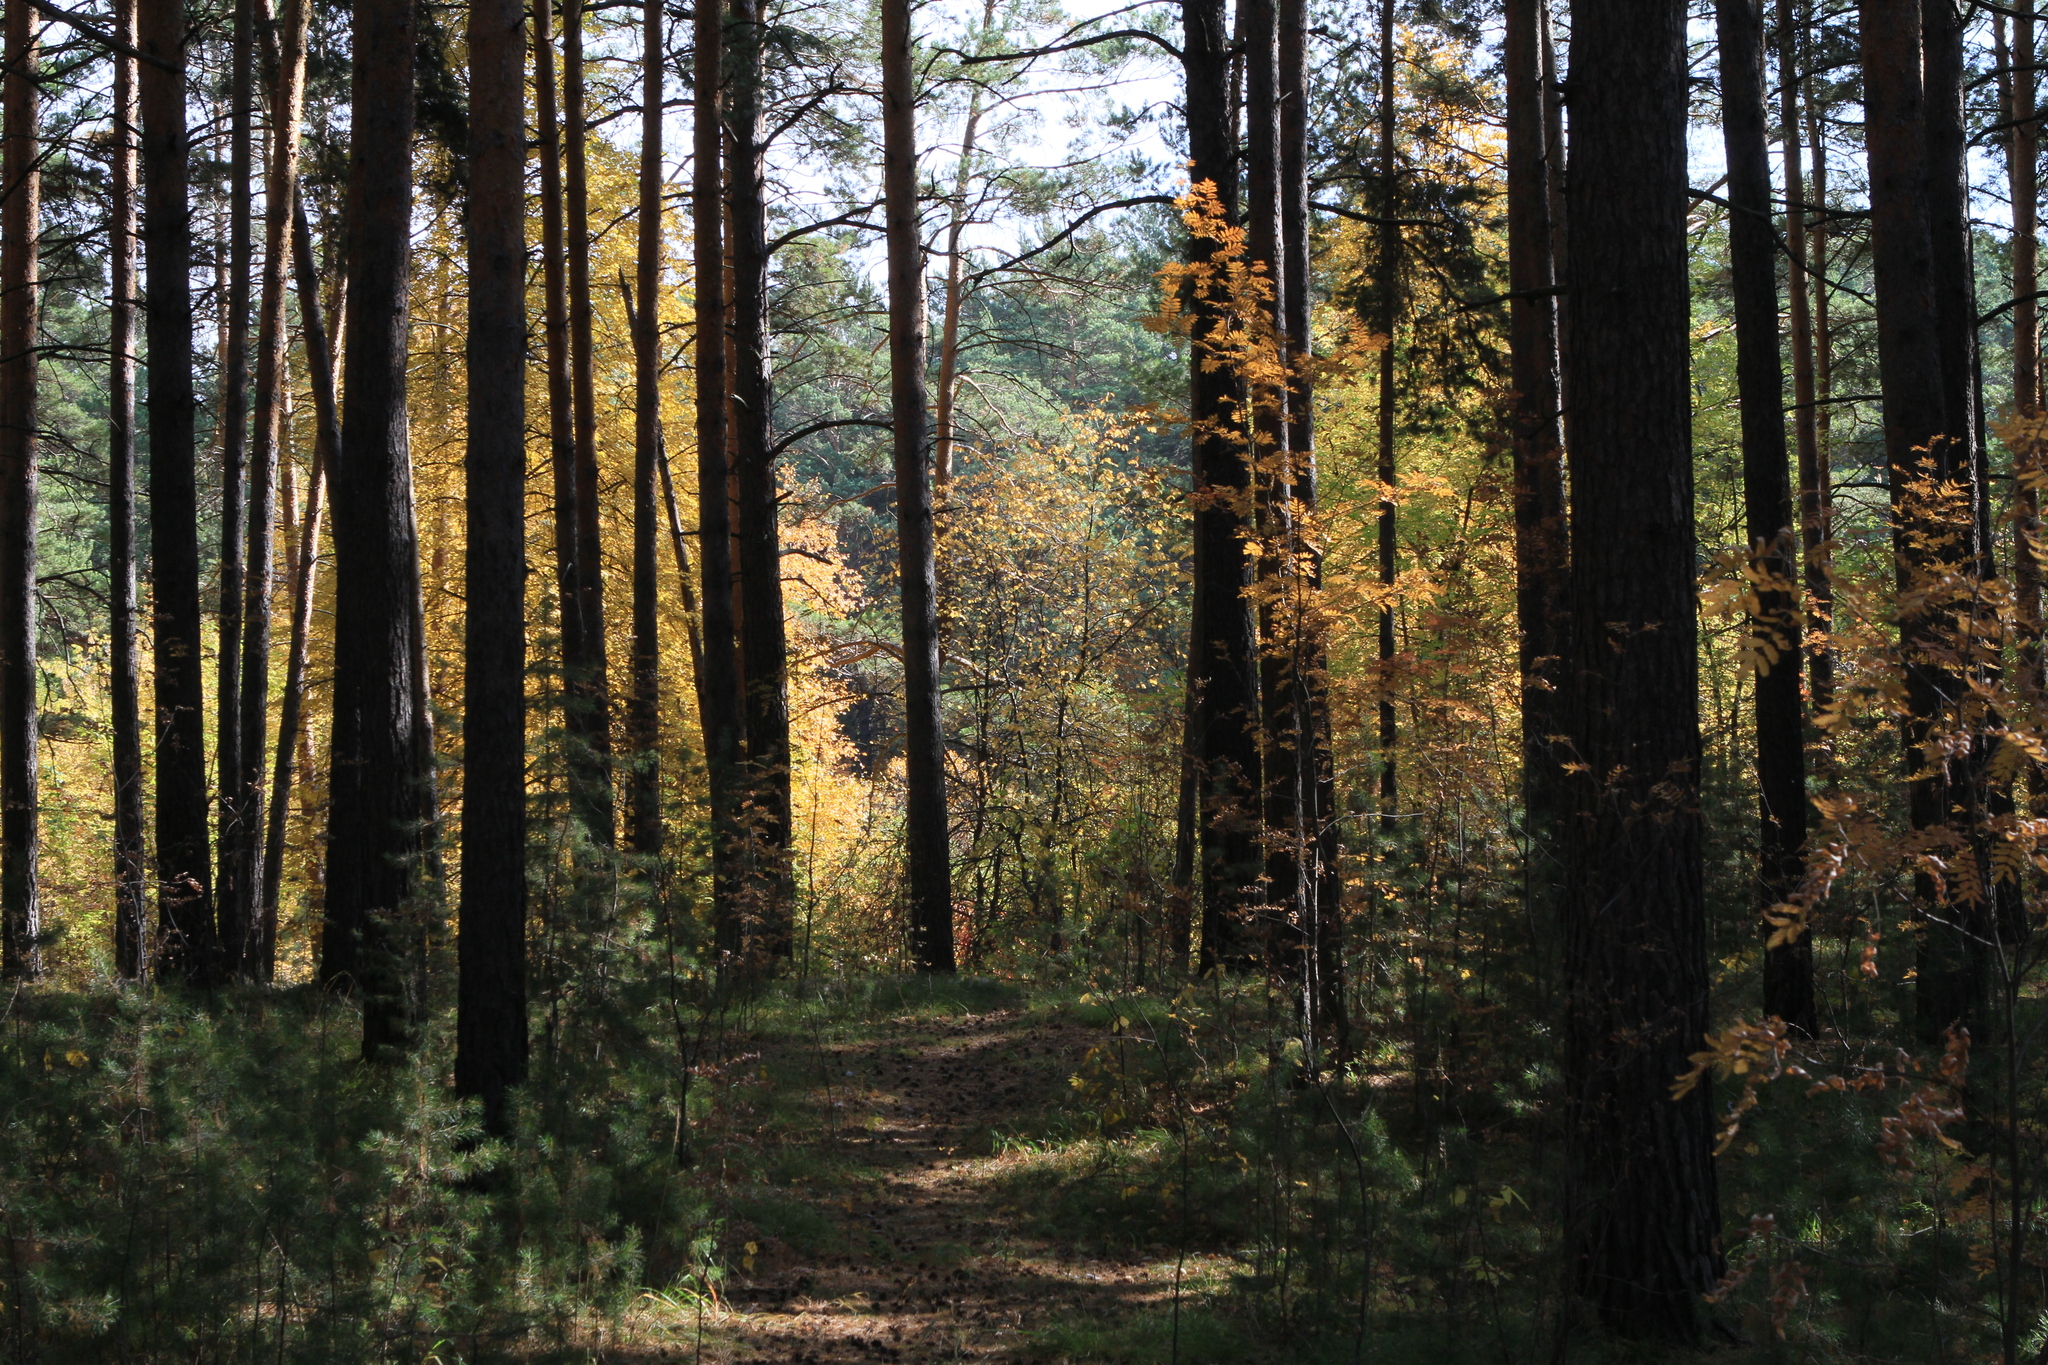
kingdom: Plantae
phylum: Tracheophyta
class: Pinopsida
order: Pinales
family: Pinaceae
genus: Pinus
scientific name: Pinus sylvestris
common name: Scots pine
